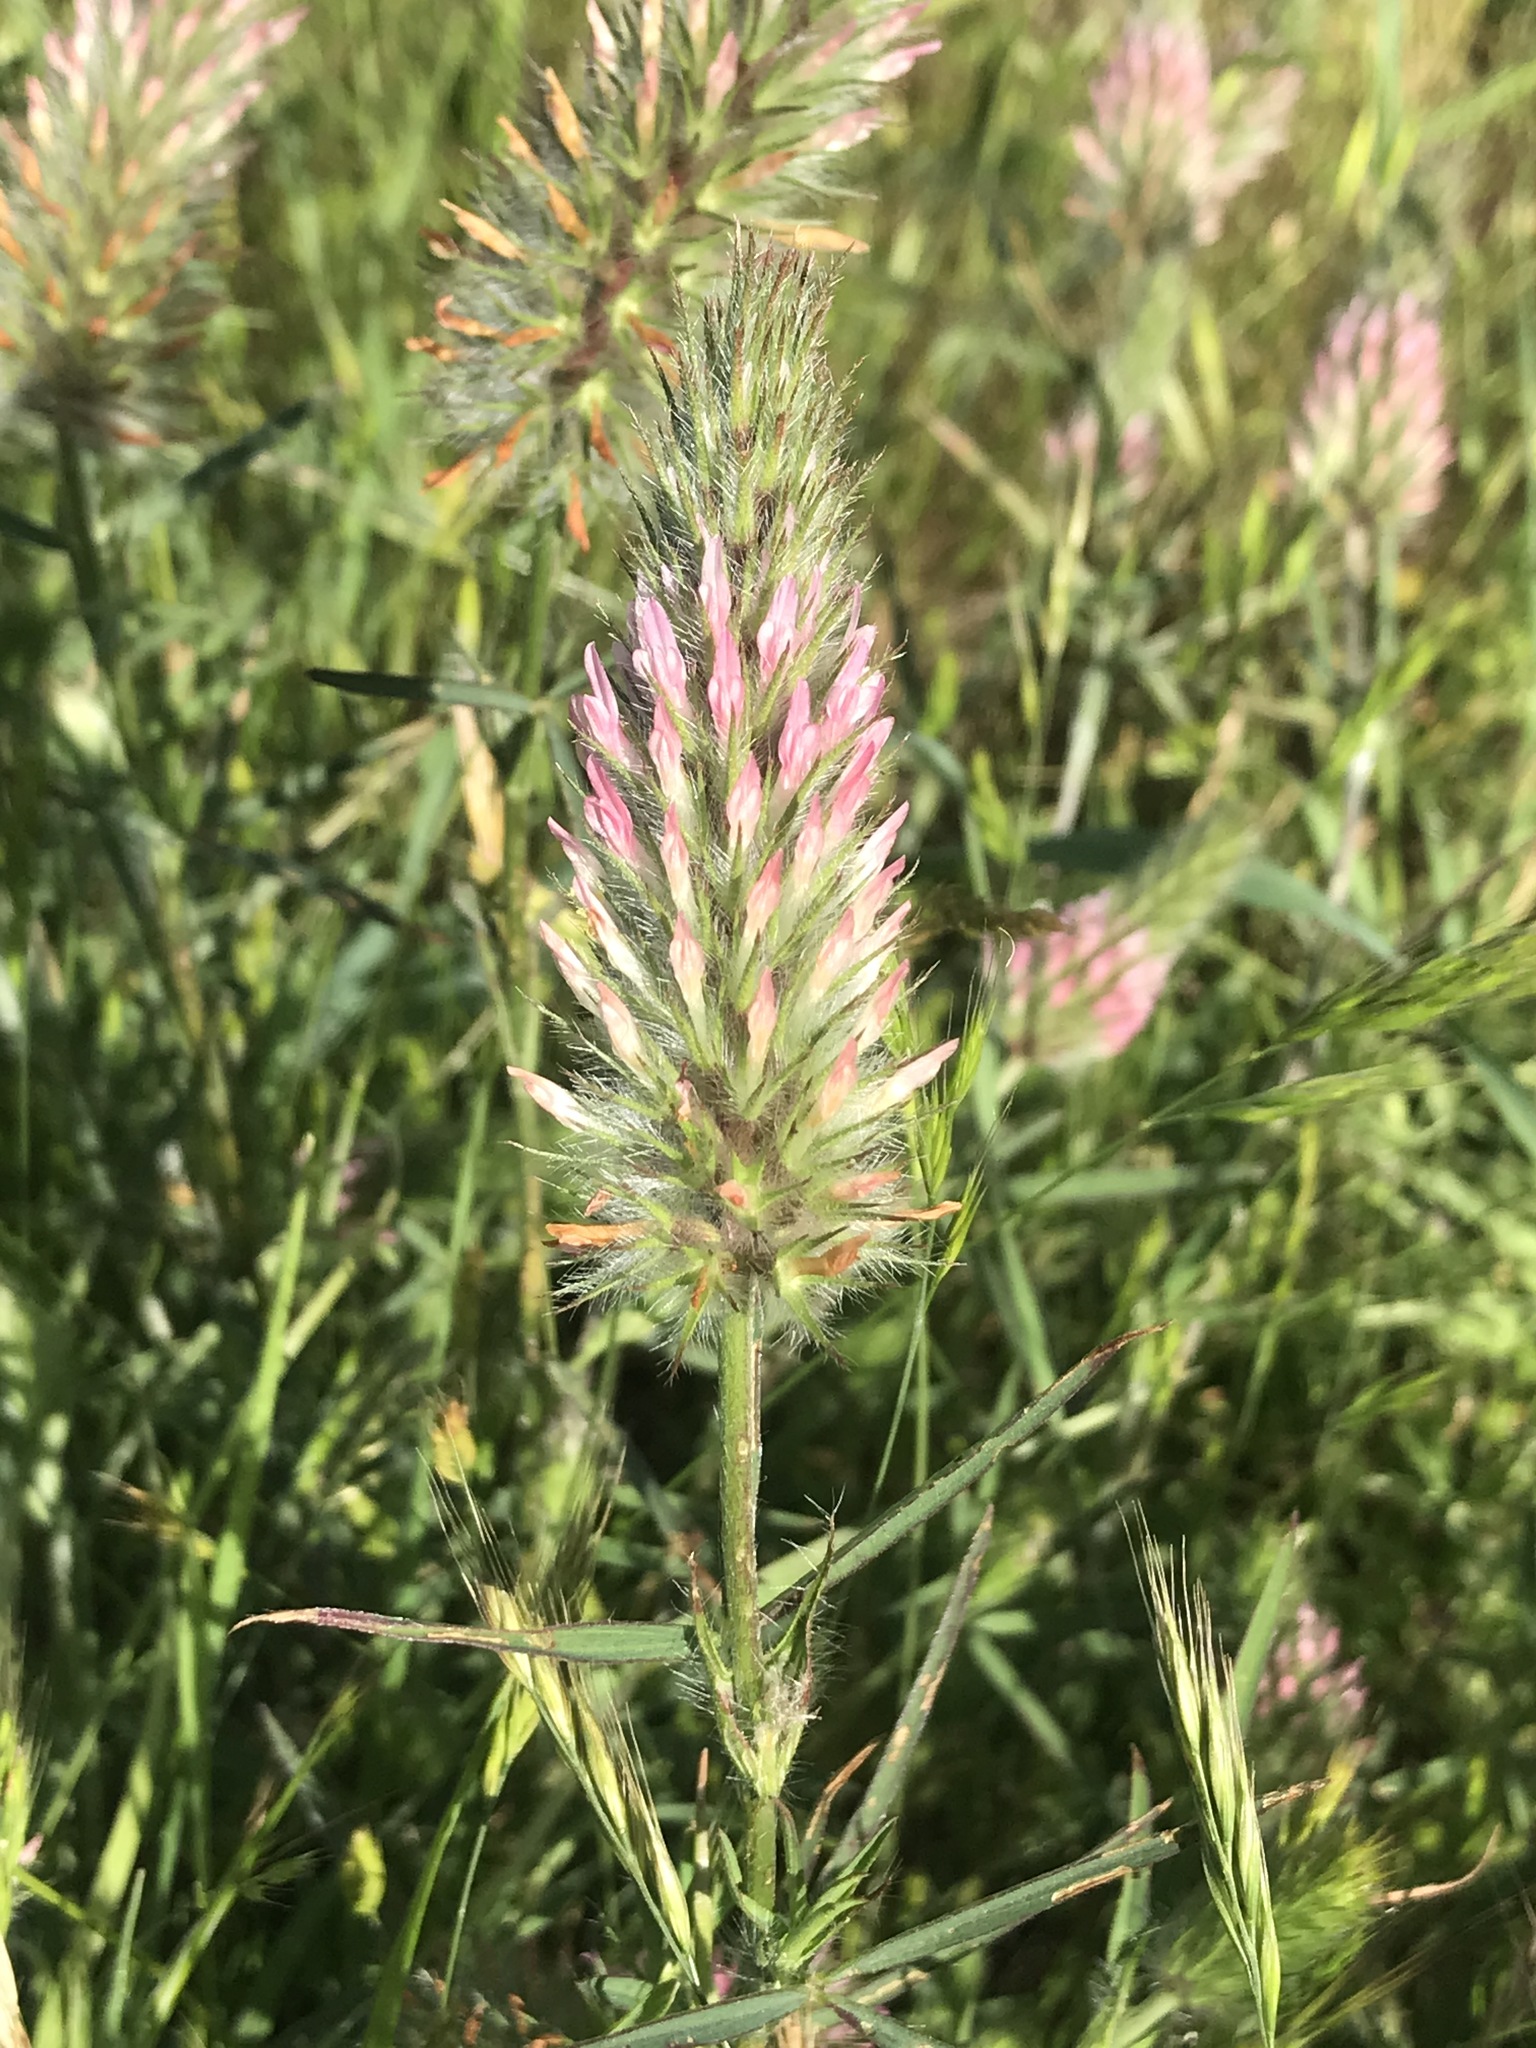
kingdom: Plantae
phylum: Tracheophyta
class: Magnoliopsida
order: Fabales
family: Fabaceae
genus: Trifolium
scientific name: Trifolium angustifolium
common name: Narrow clover
